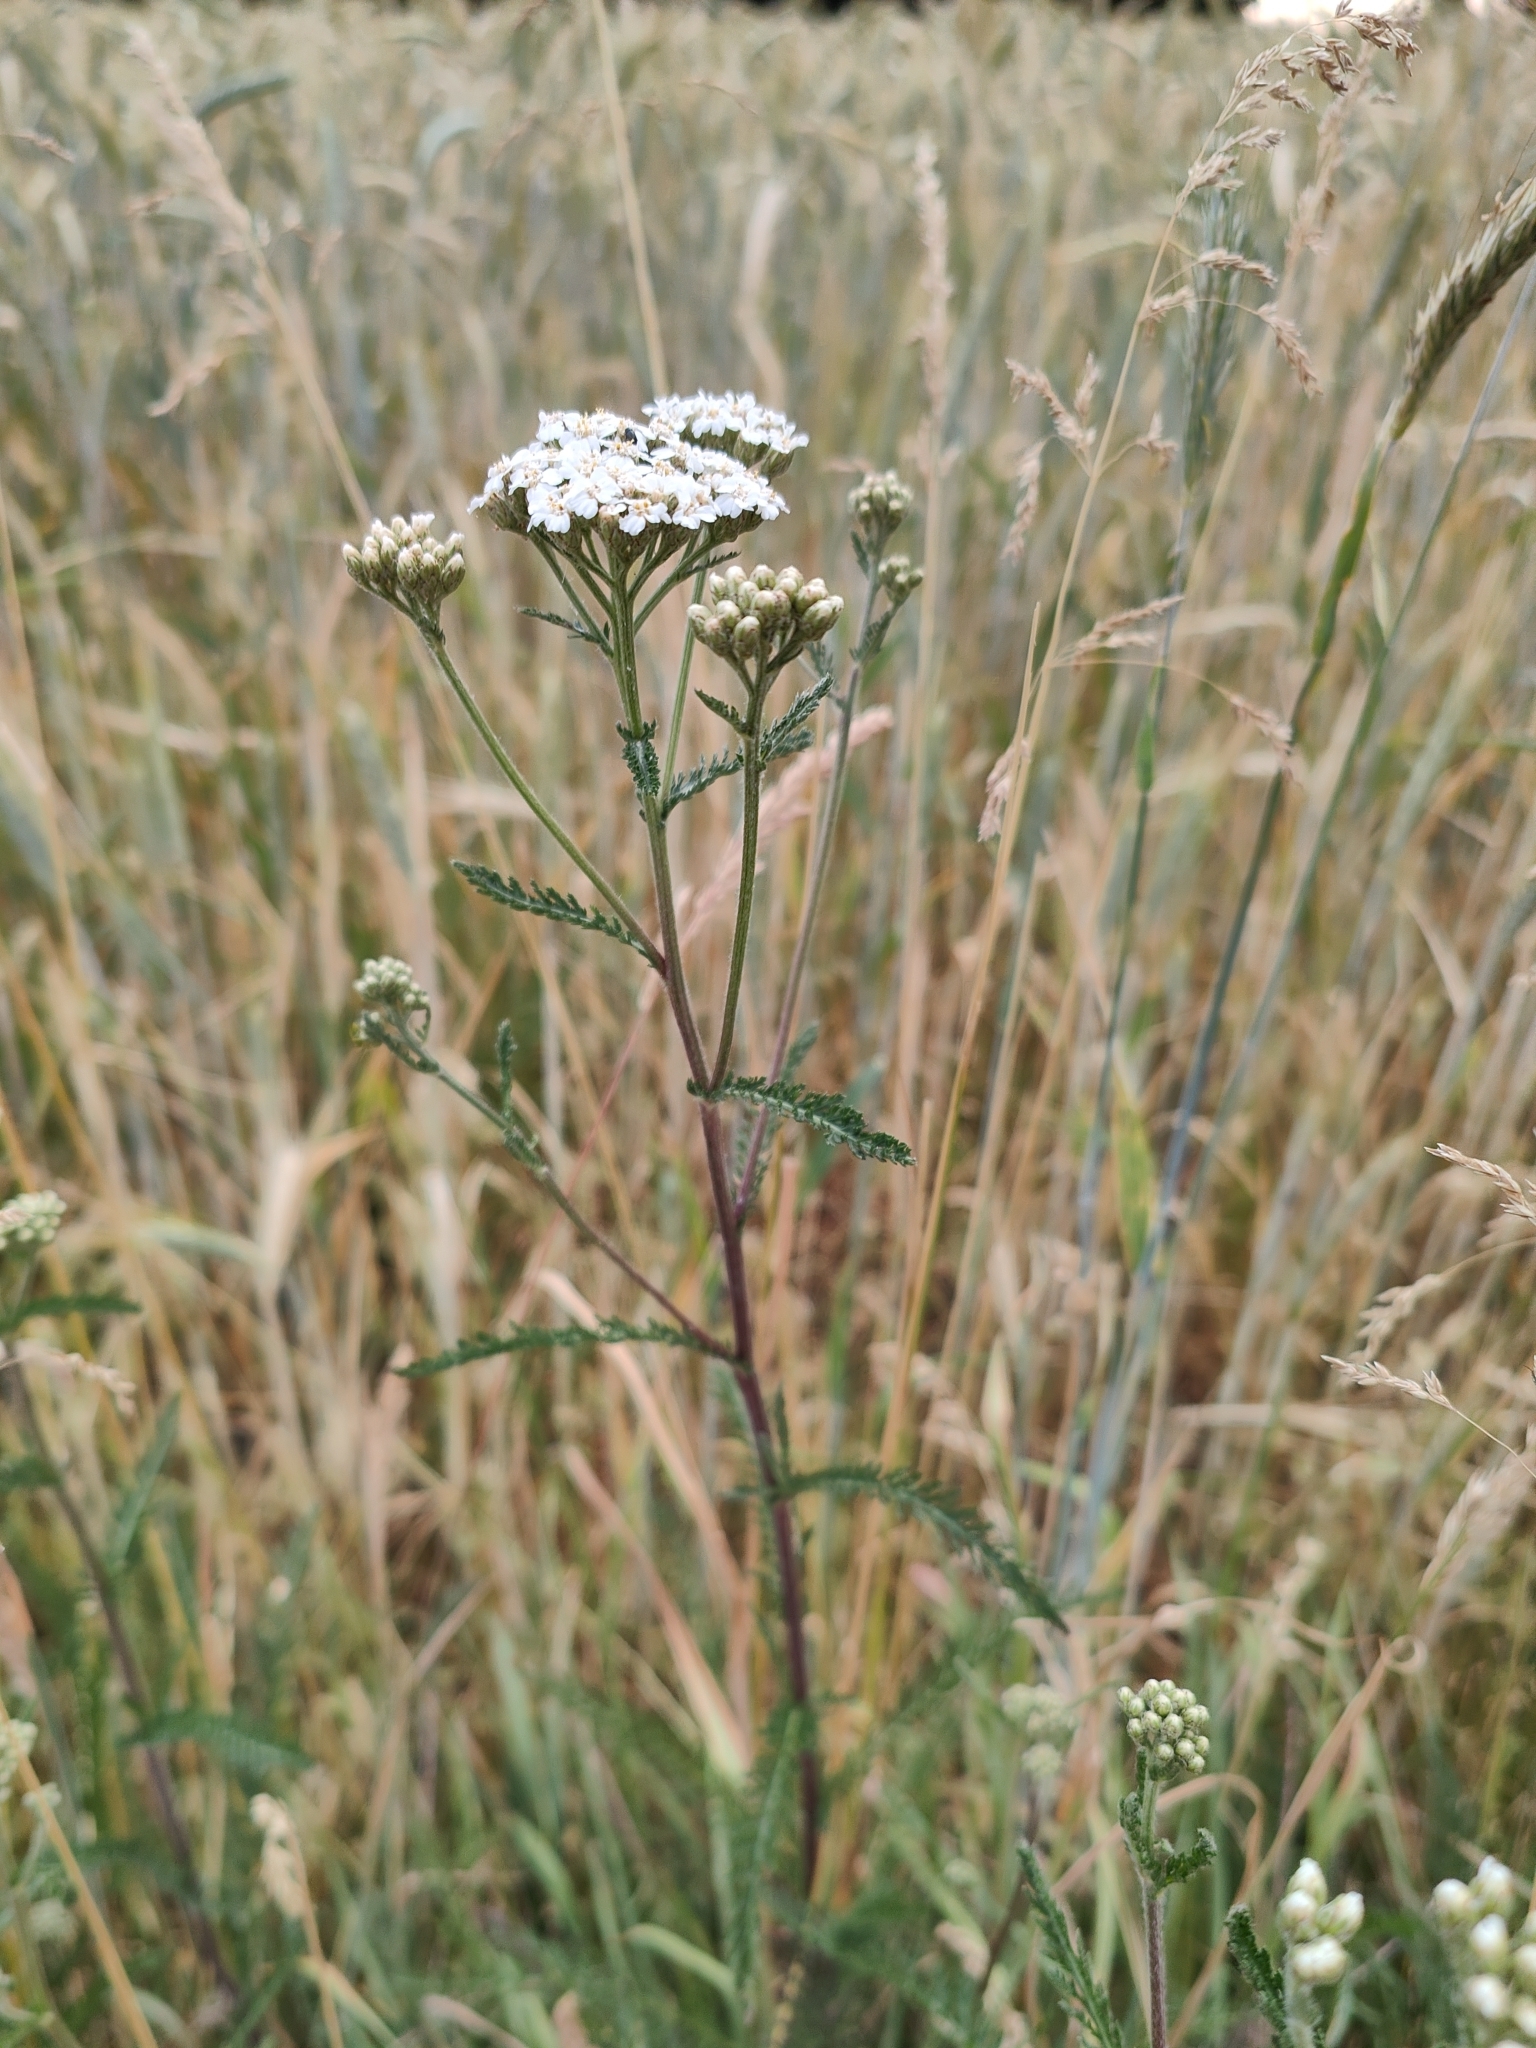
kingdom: Plantae
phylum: Tracheophyta
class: Magnoliopsida
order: Asterales
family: Asteraceae
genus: Achillea
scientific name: Achillea millefolium
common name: Yarrow
